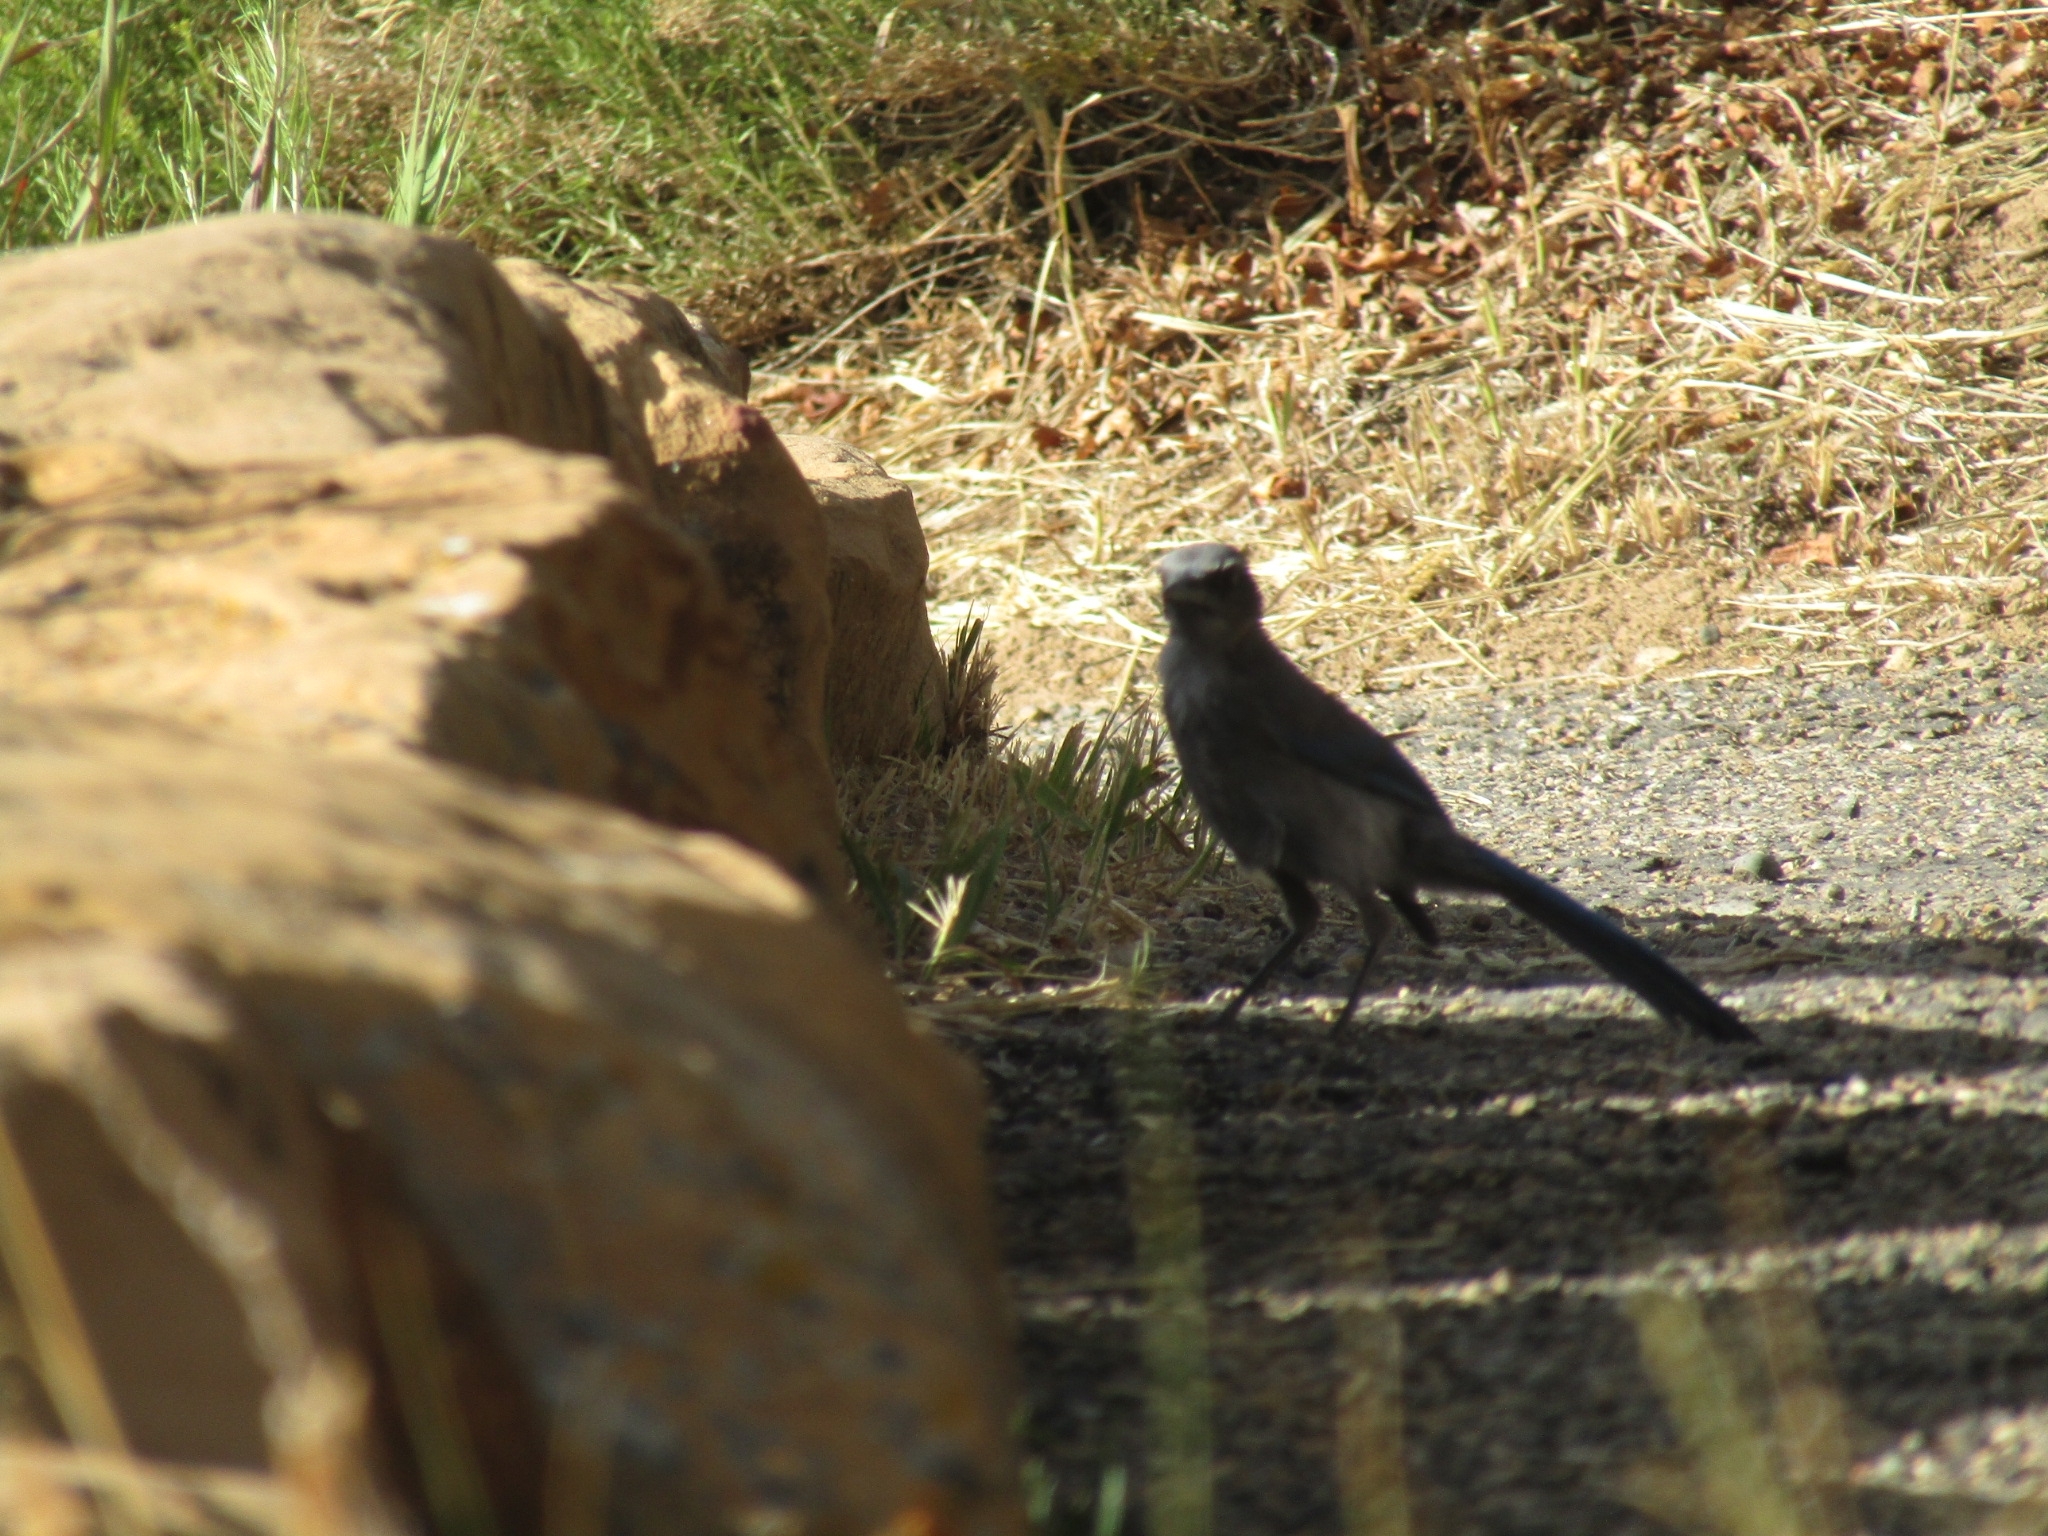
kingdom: Animalia
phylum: Chordata
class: Aves
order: Passeriformes
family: Corvidae
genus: Aphelocoma
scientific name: Aphelocoma woodhouseii
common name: Woodhouse's scrub-jay
